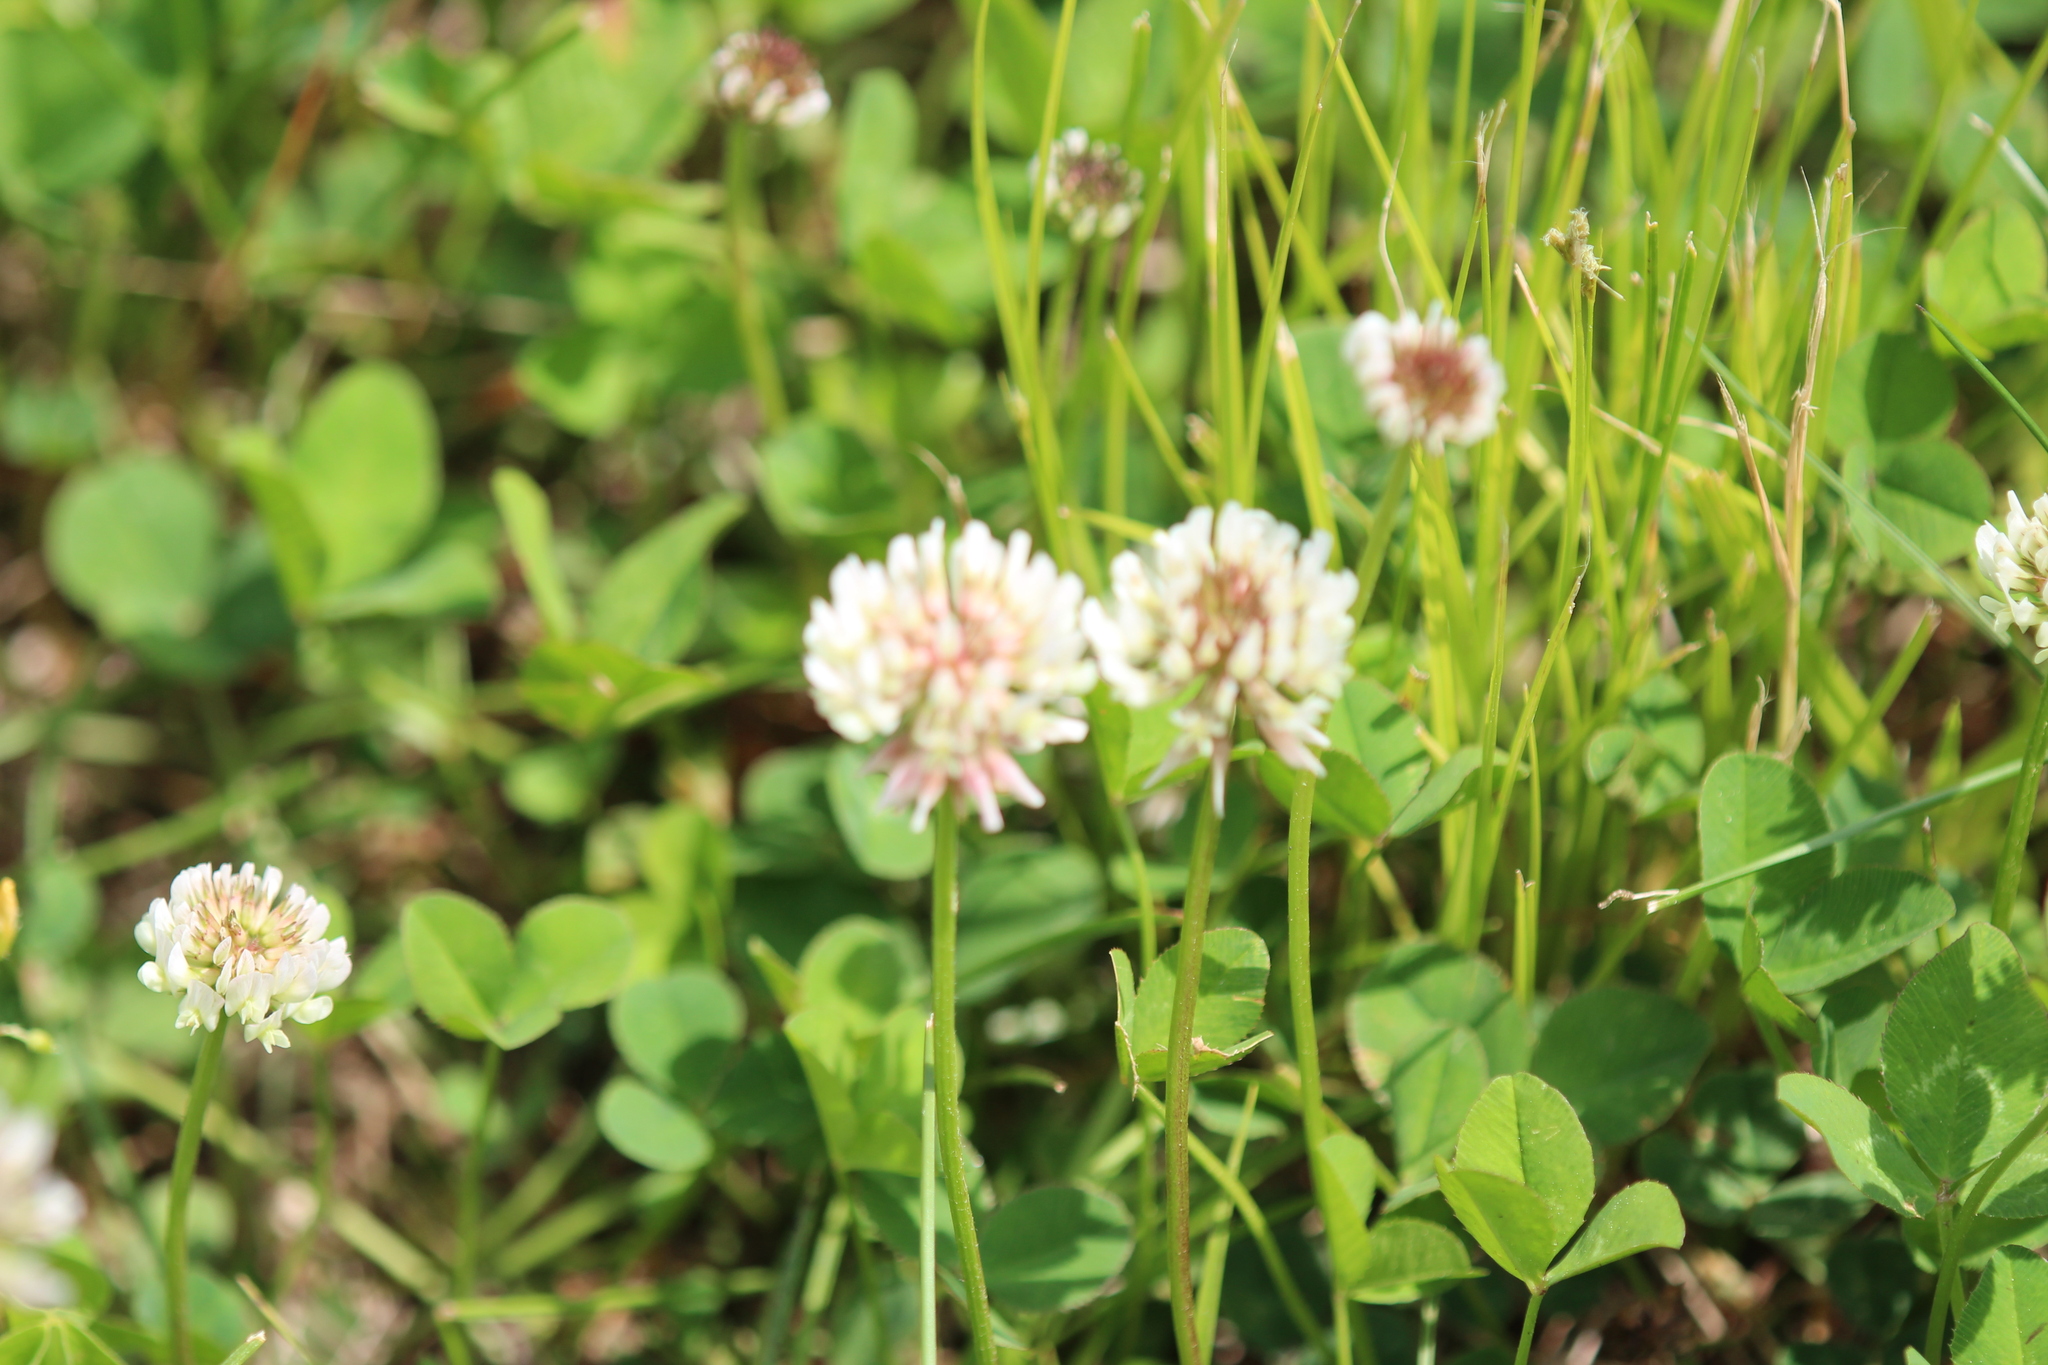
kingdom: Plantae
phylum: Tracheophyta
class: Magnoliopsida
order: Fabales
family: Fabaceae
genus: Trifolium
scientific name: Trifolium repens
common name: White clover
